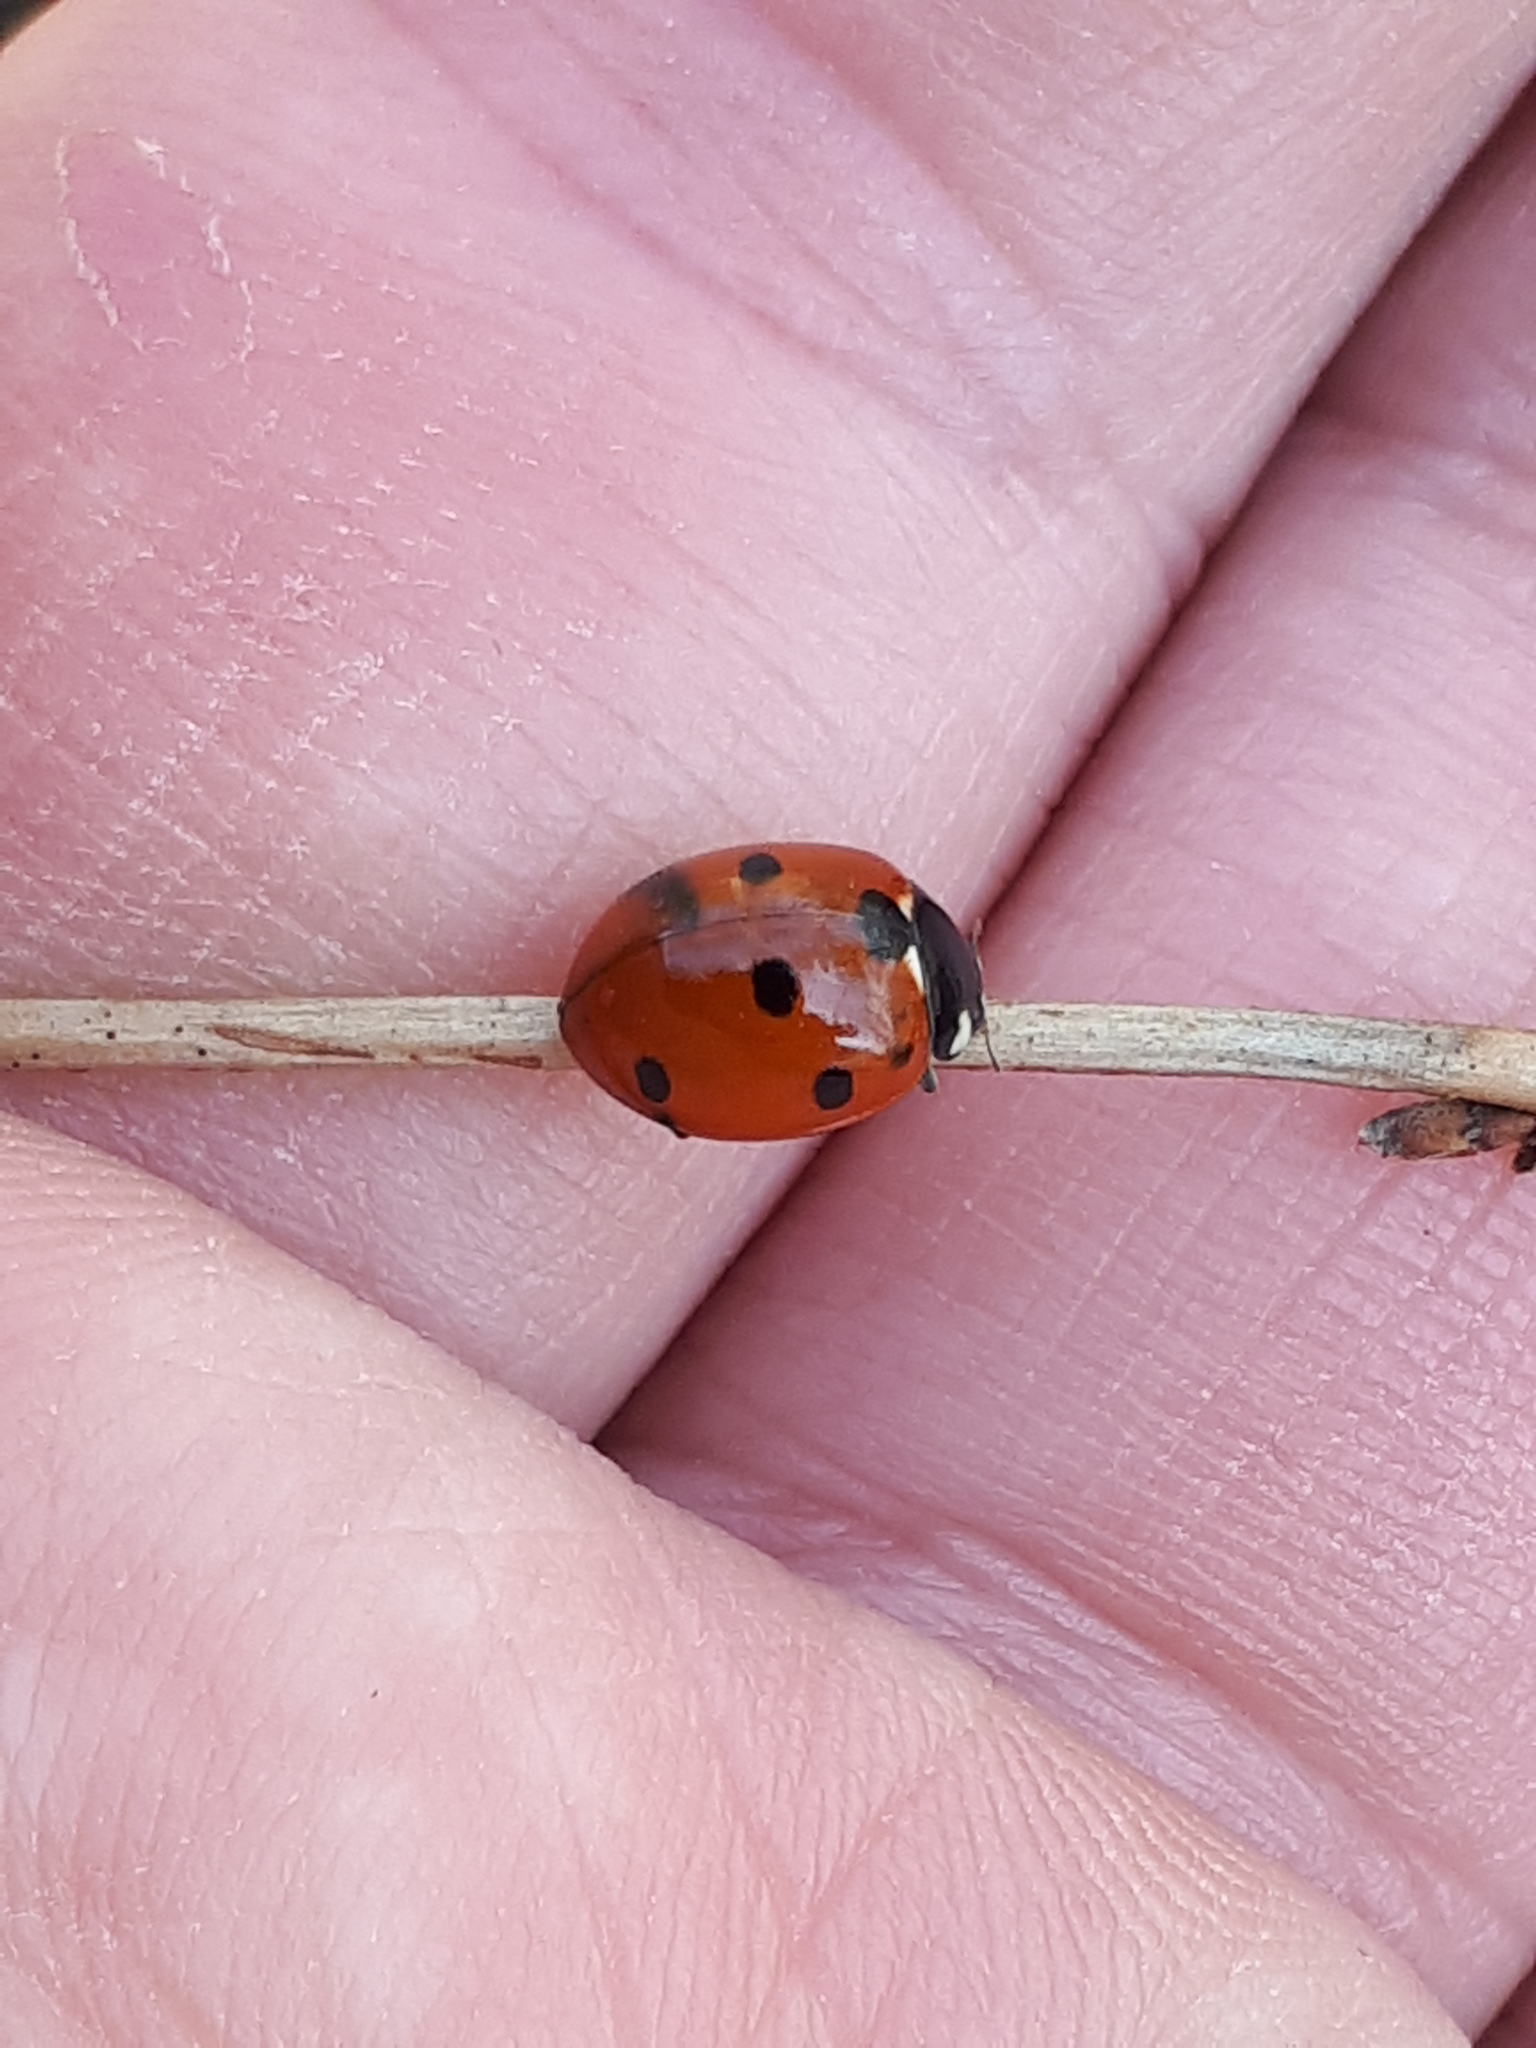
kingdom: Animalia
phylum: Arthropoda
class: Insecta
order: Coleoptera
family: Coccinellidae
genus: Coccinella
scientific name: Coccinella septempunctata
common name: Sevenspotted lady beetle
